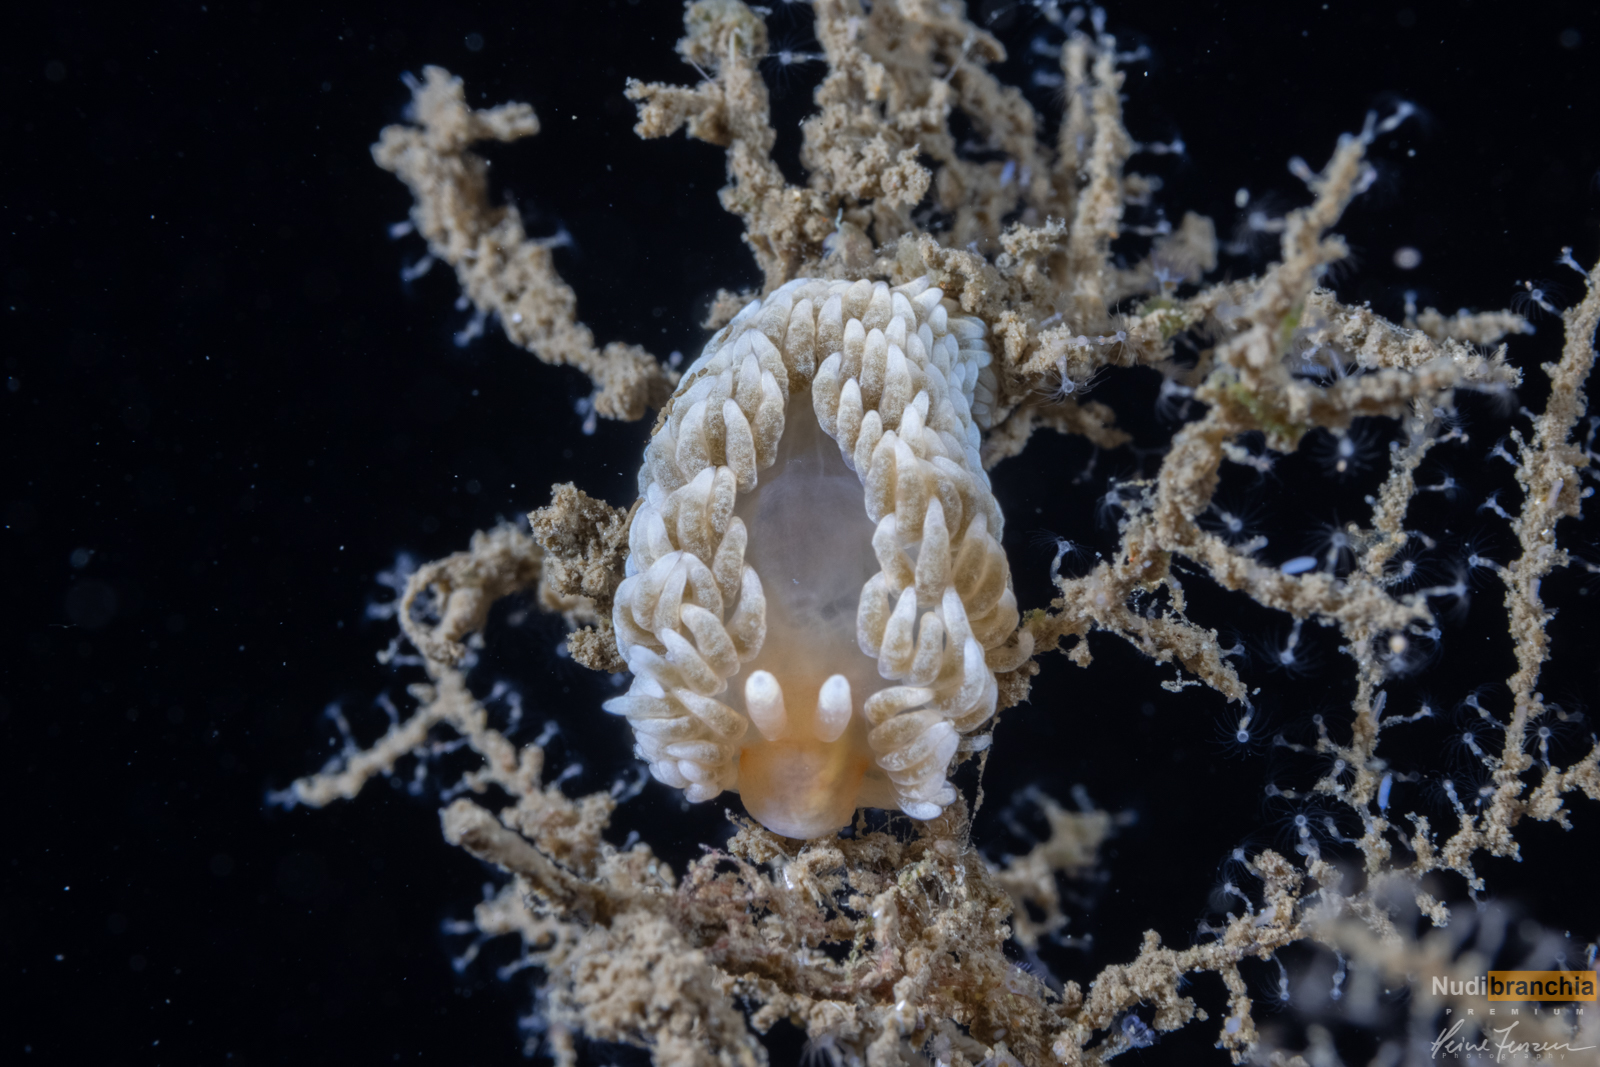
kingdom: Animalia
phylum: Mollusca
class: Gastropoda
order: Nudibranchia
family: Aeolidiidae
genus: Aeolidiella
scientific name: Aeolidiella glauca
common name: Orange-brown aeolid
